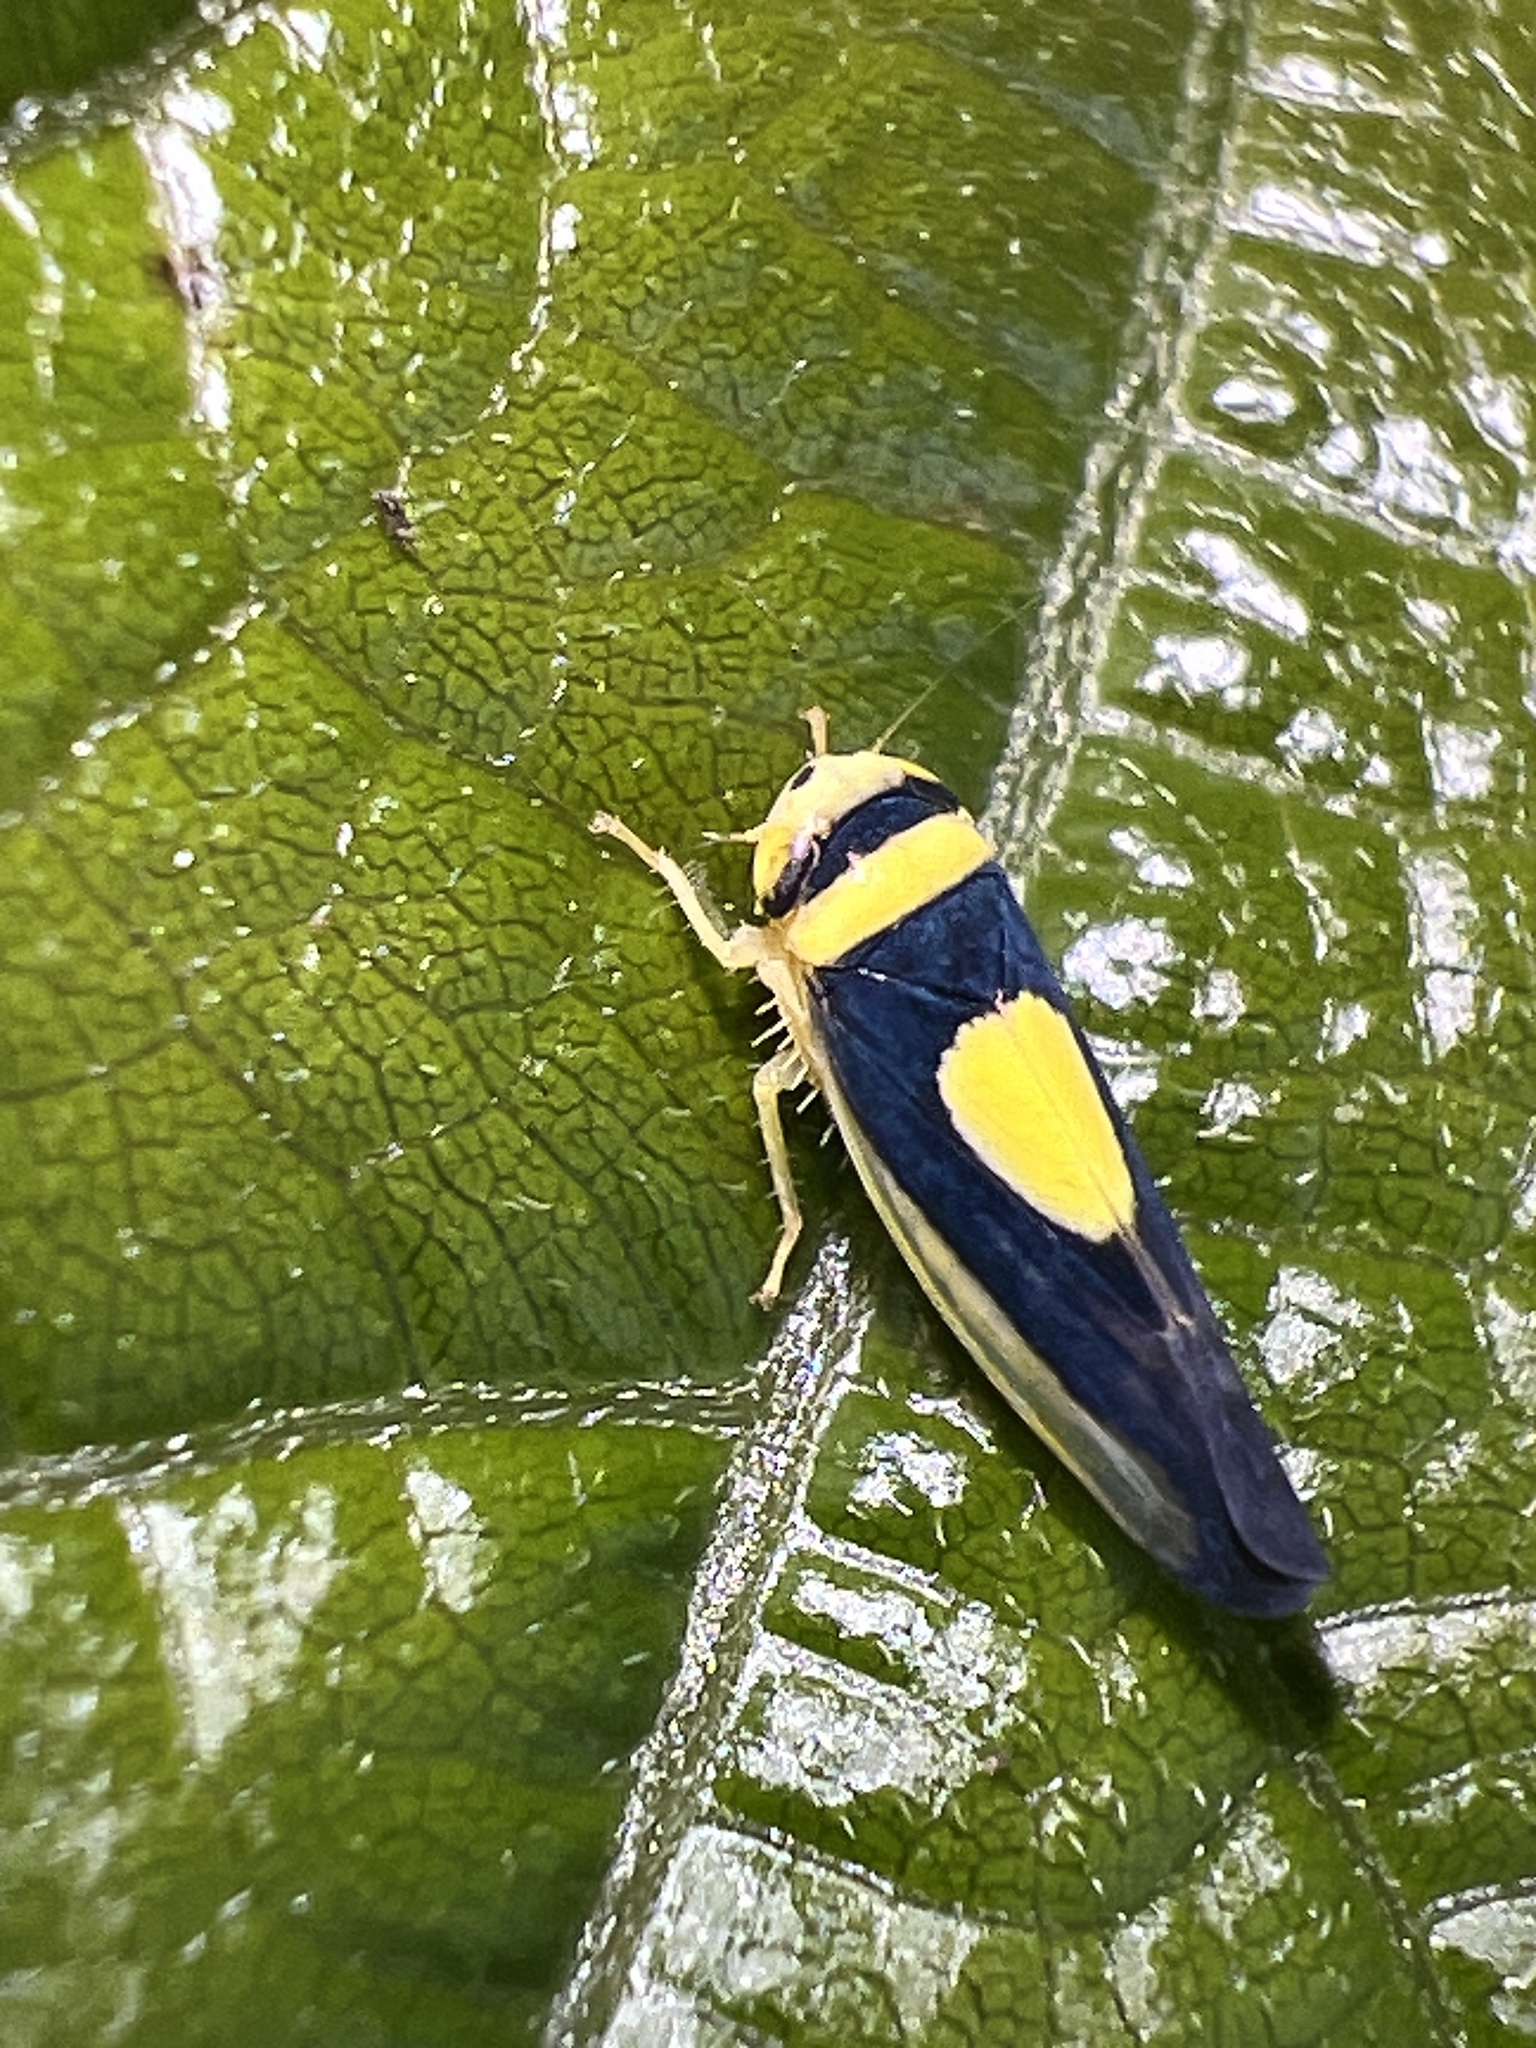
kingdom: Animalia
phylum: Arthropoda
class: Insecta
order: Hemiptera
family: Cicadellidae
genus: Colladonus
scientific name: Colladonus clitellarius
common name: The saddleback leafhopper
